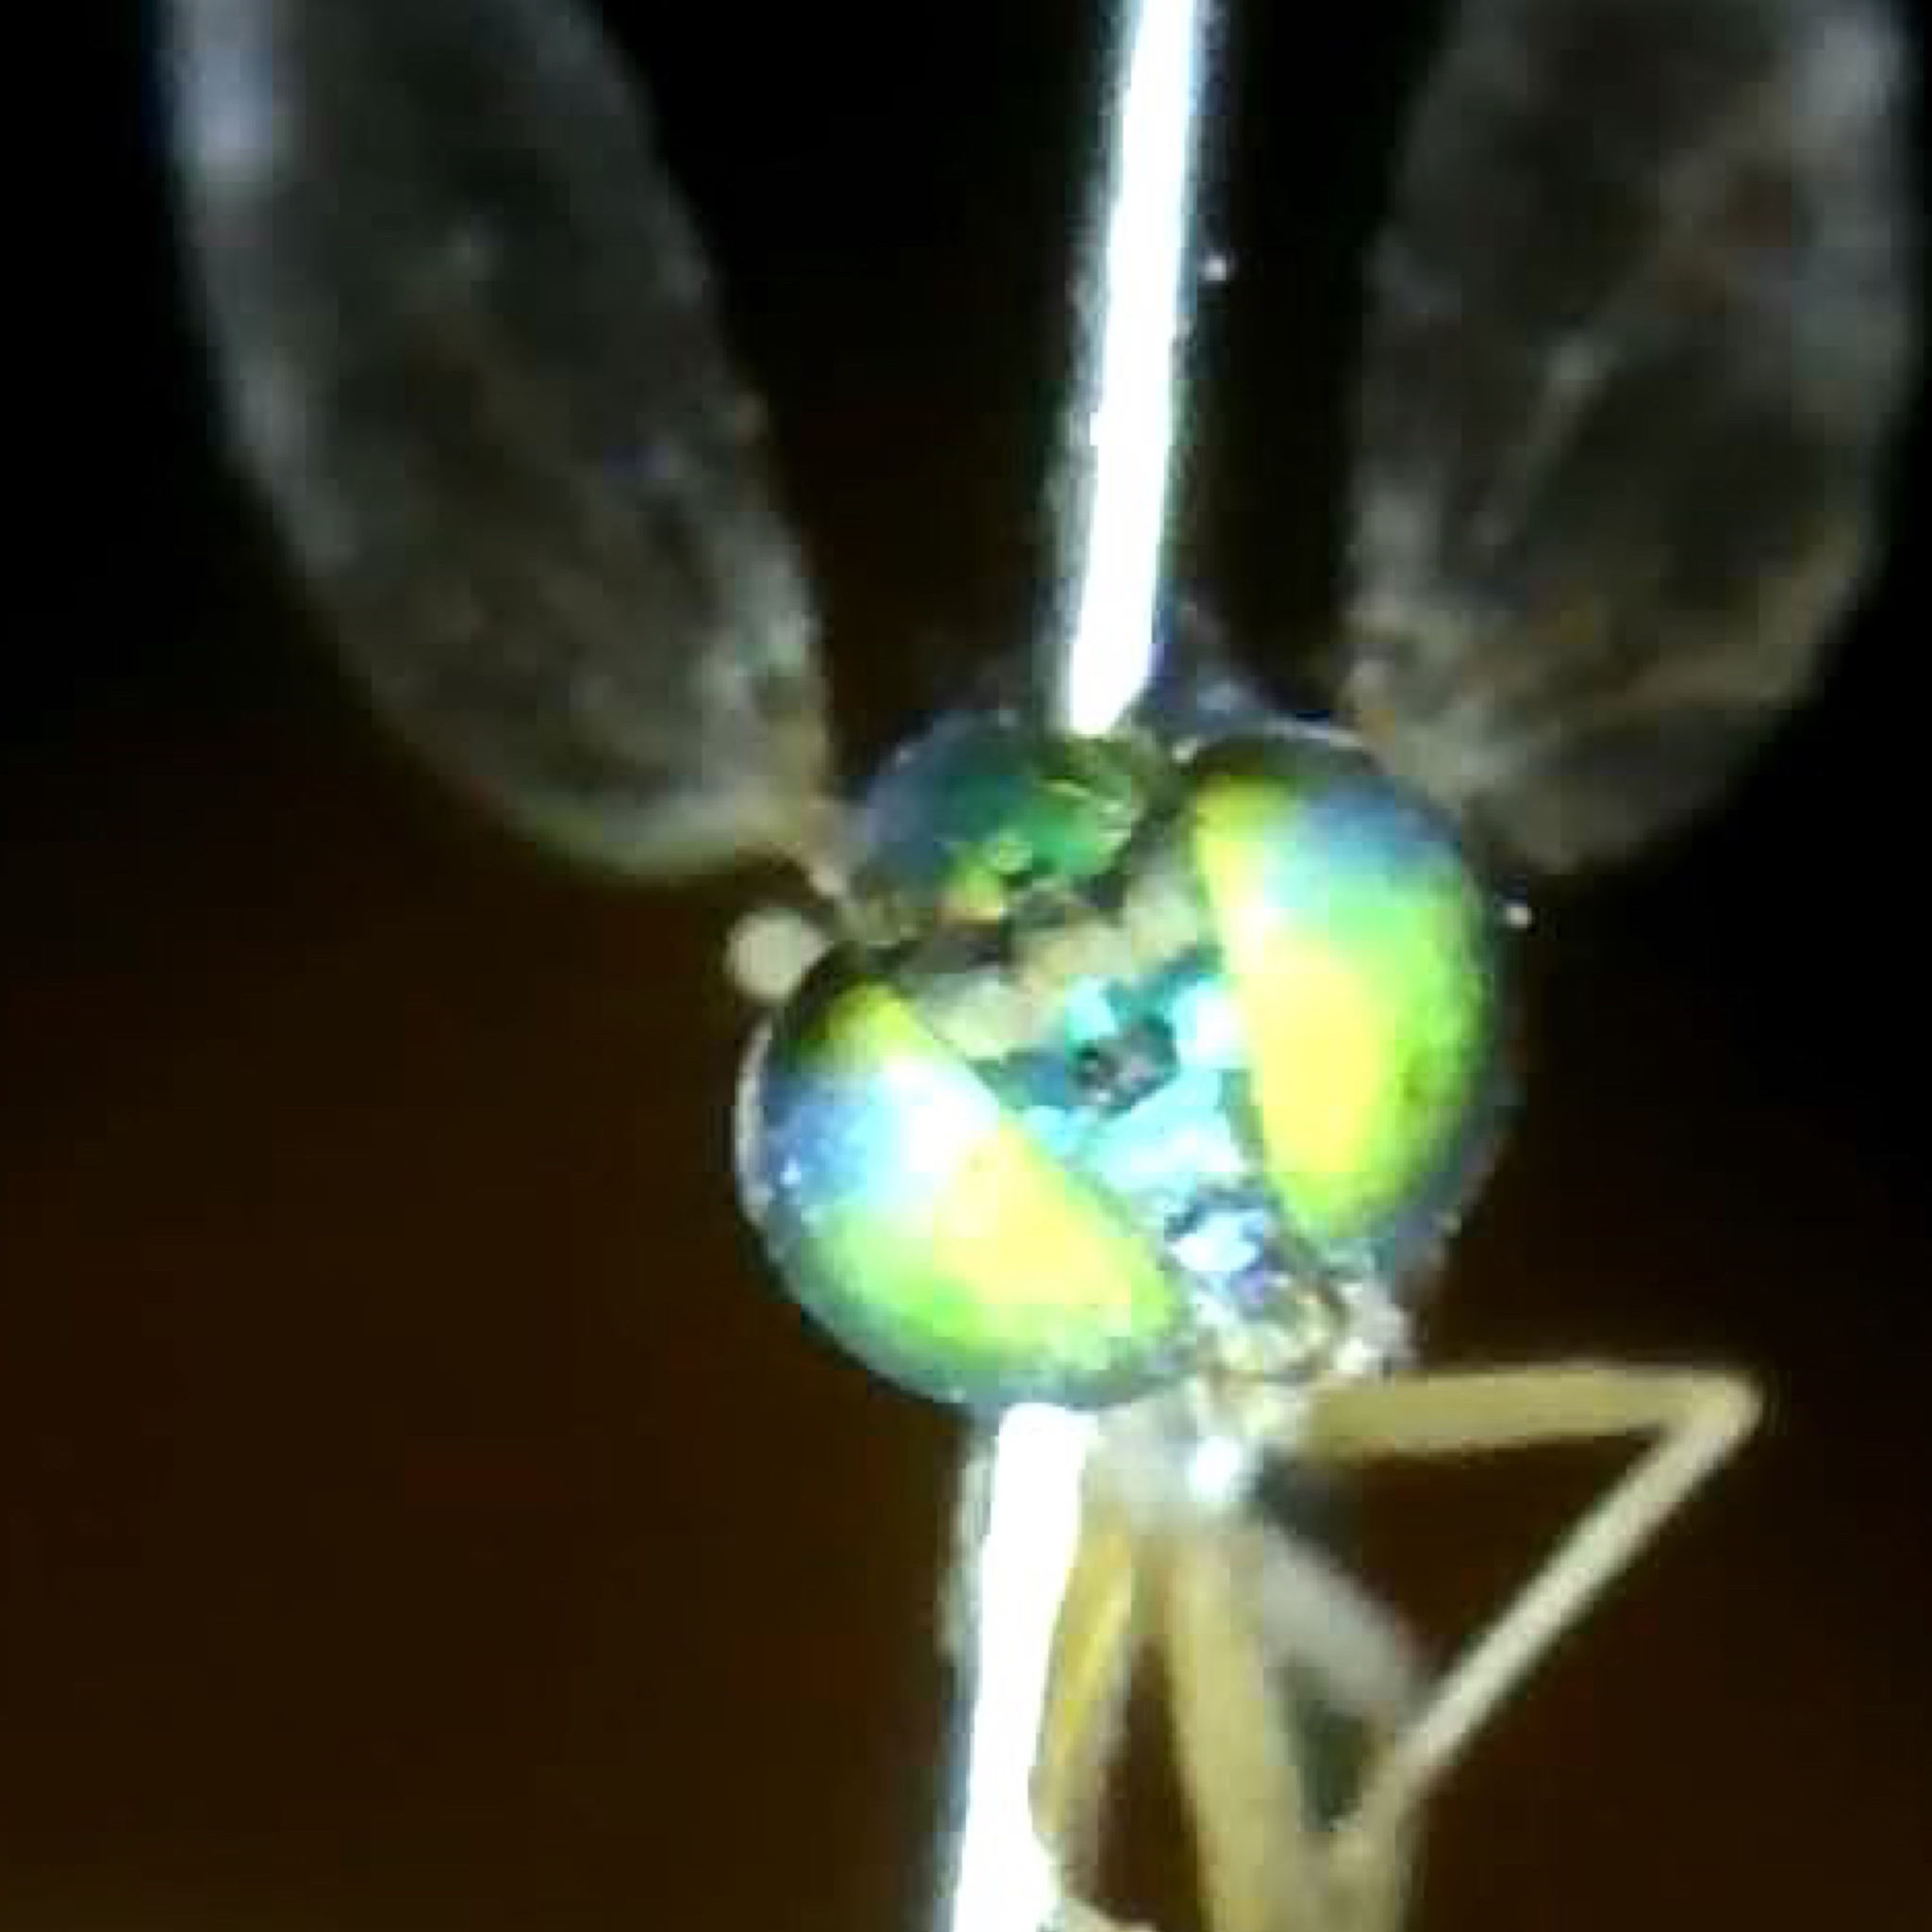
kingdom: Animalia
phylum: Arthropoda
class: Insecta
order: Diptera
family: Dolichopodidae
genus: Condylostylus
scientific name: Condylostylus banksii
